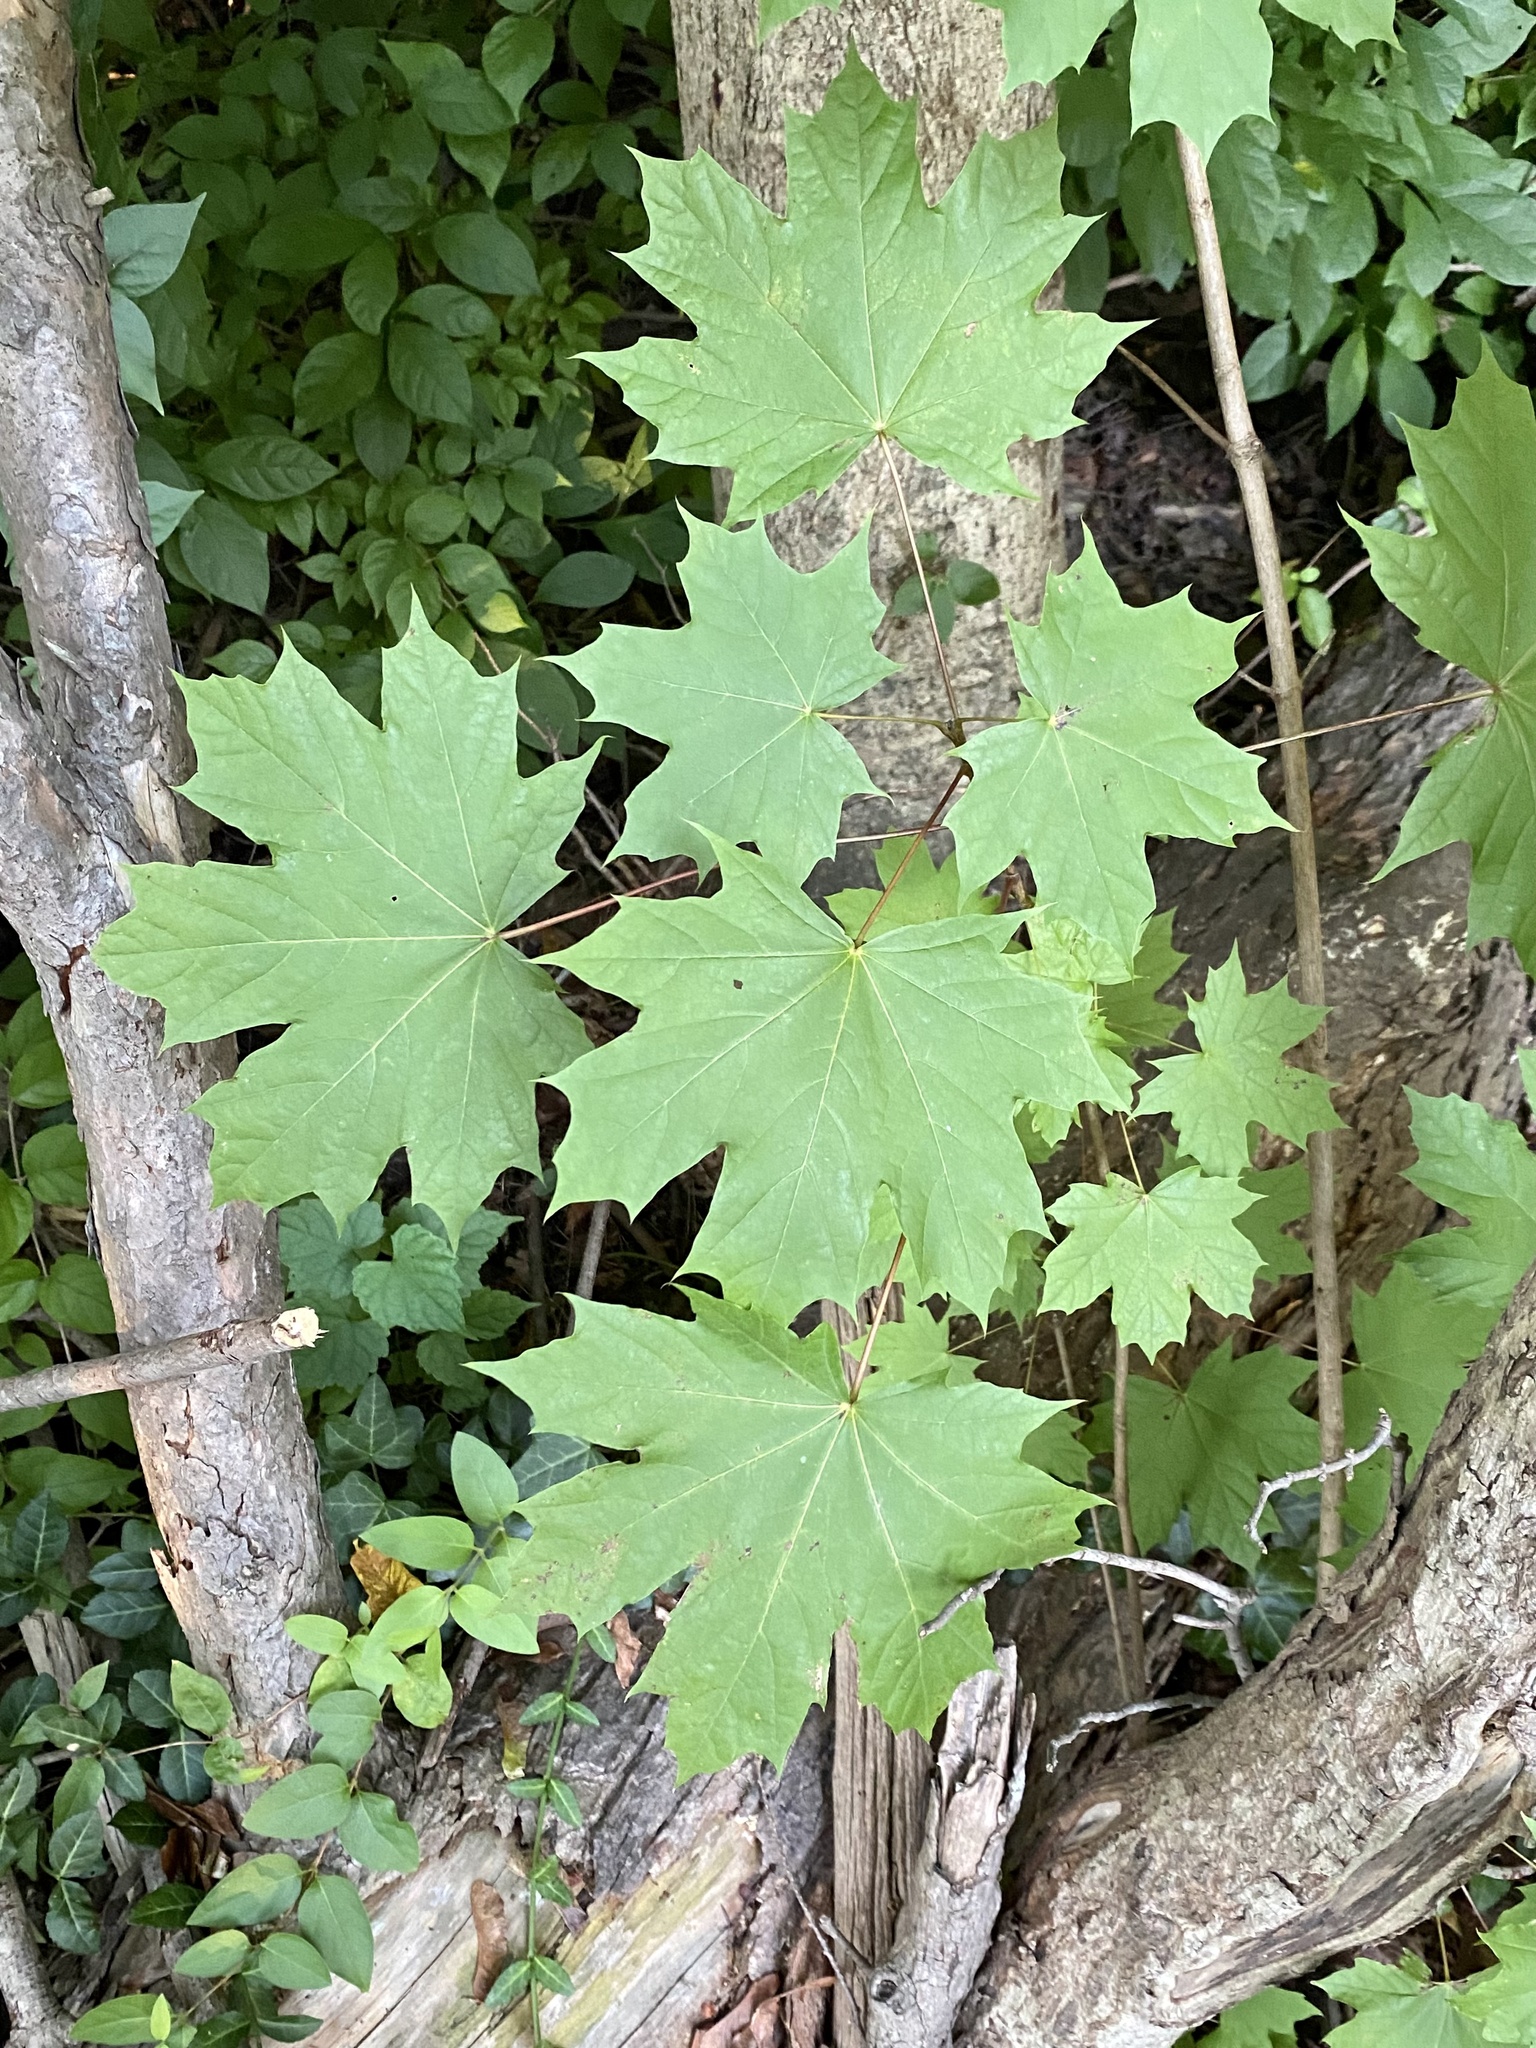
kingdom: Plantae
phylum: Tracheophyta
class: Magnoliopsida
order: Sapindales
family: Sapindaceae
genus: Acer
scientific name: Acer platanoides
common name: Norway maple
